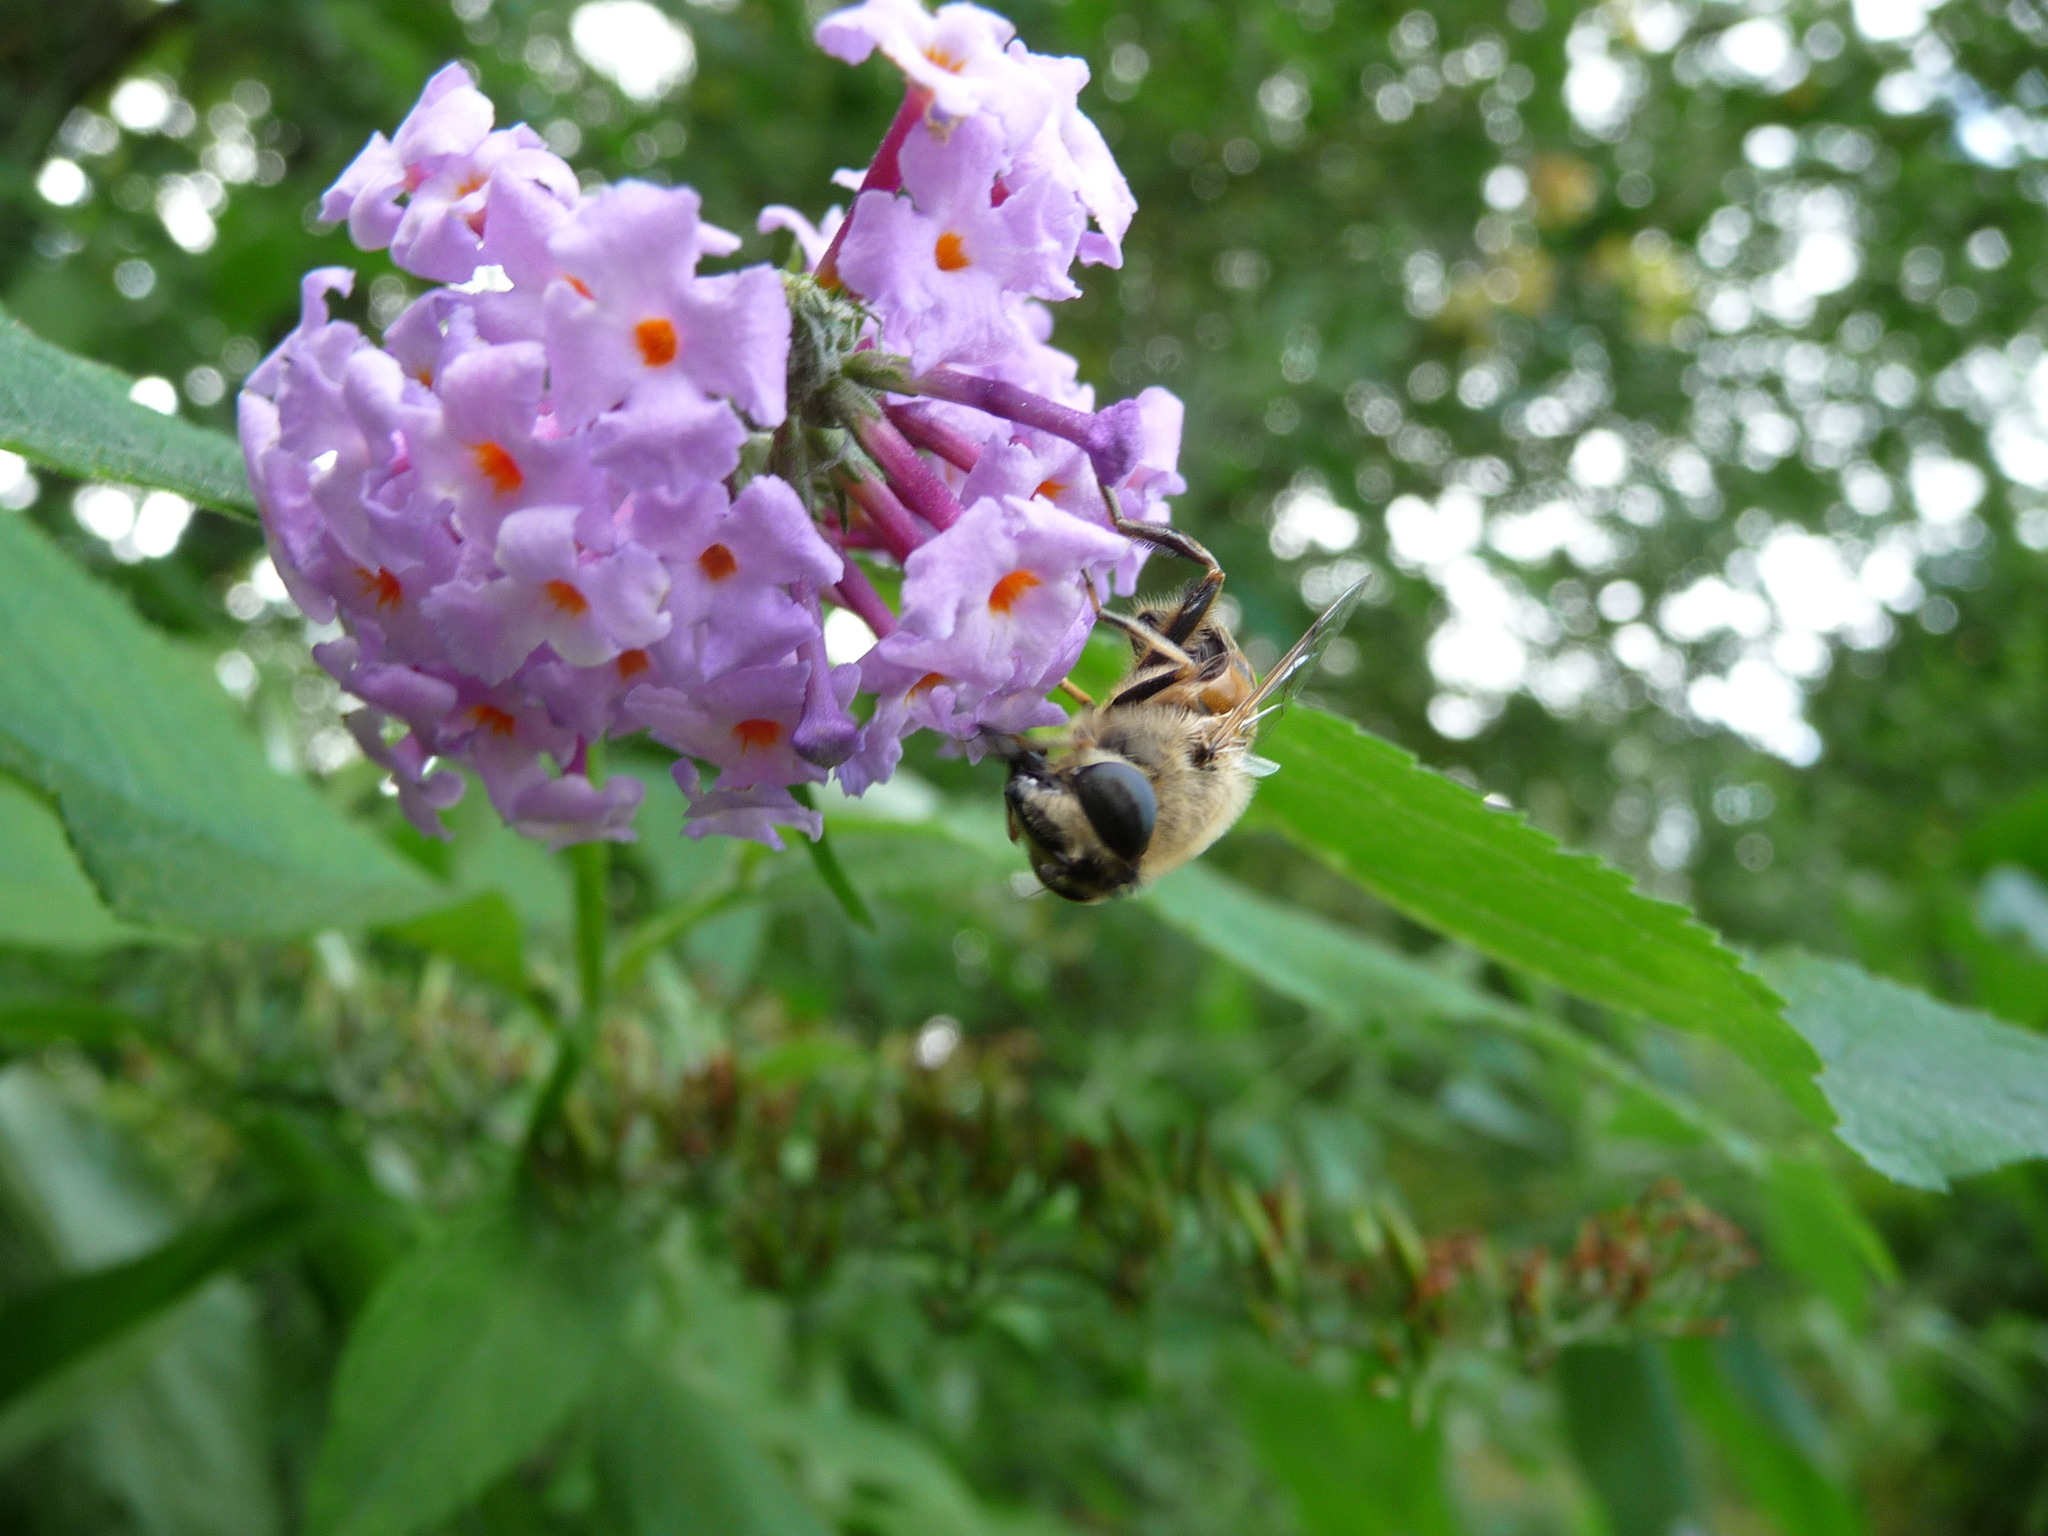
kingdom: Animalia
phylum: Arthropoda
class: Insecta
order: Diptera
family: Syrphidae
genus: Eristalis
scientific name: Eristalis tenax
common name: Drone fly
